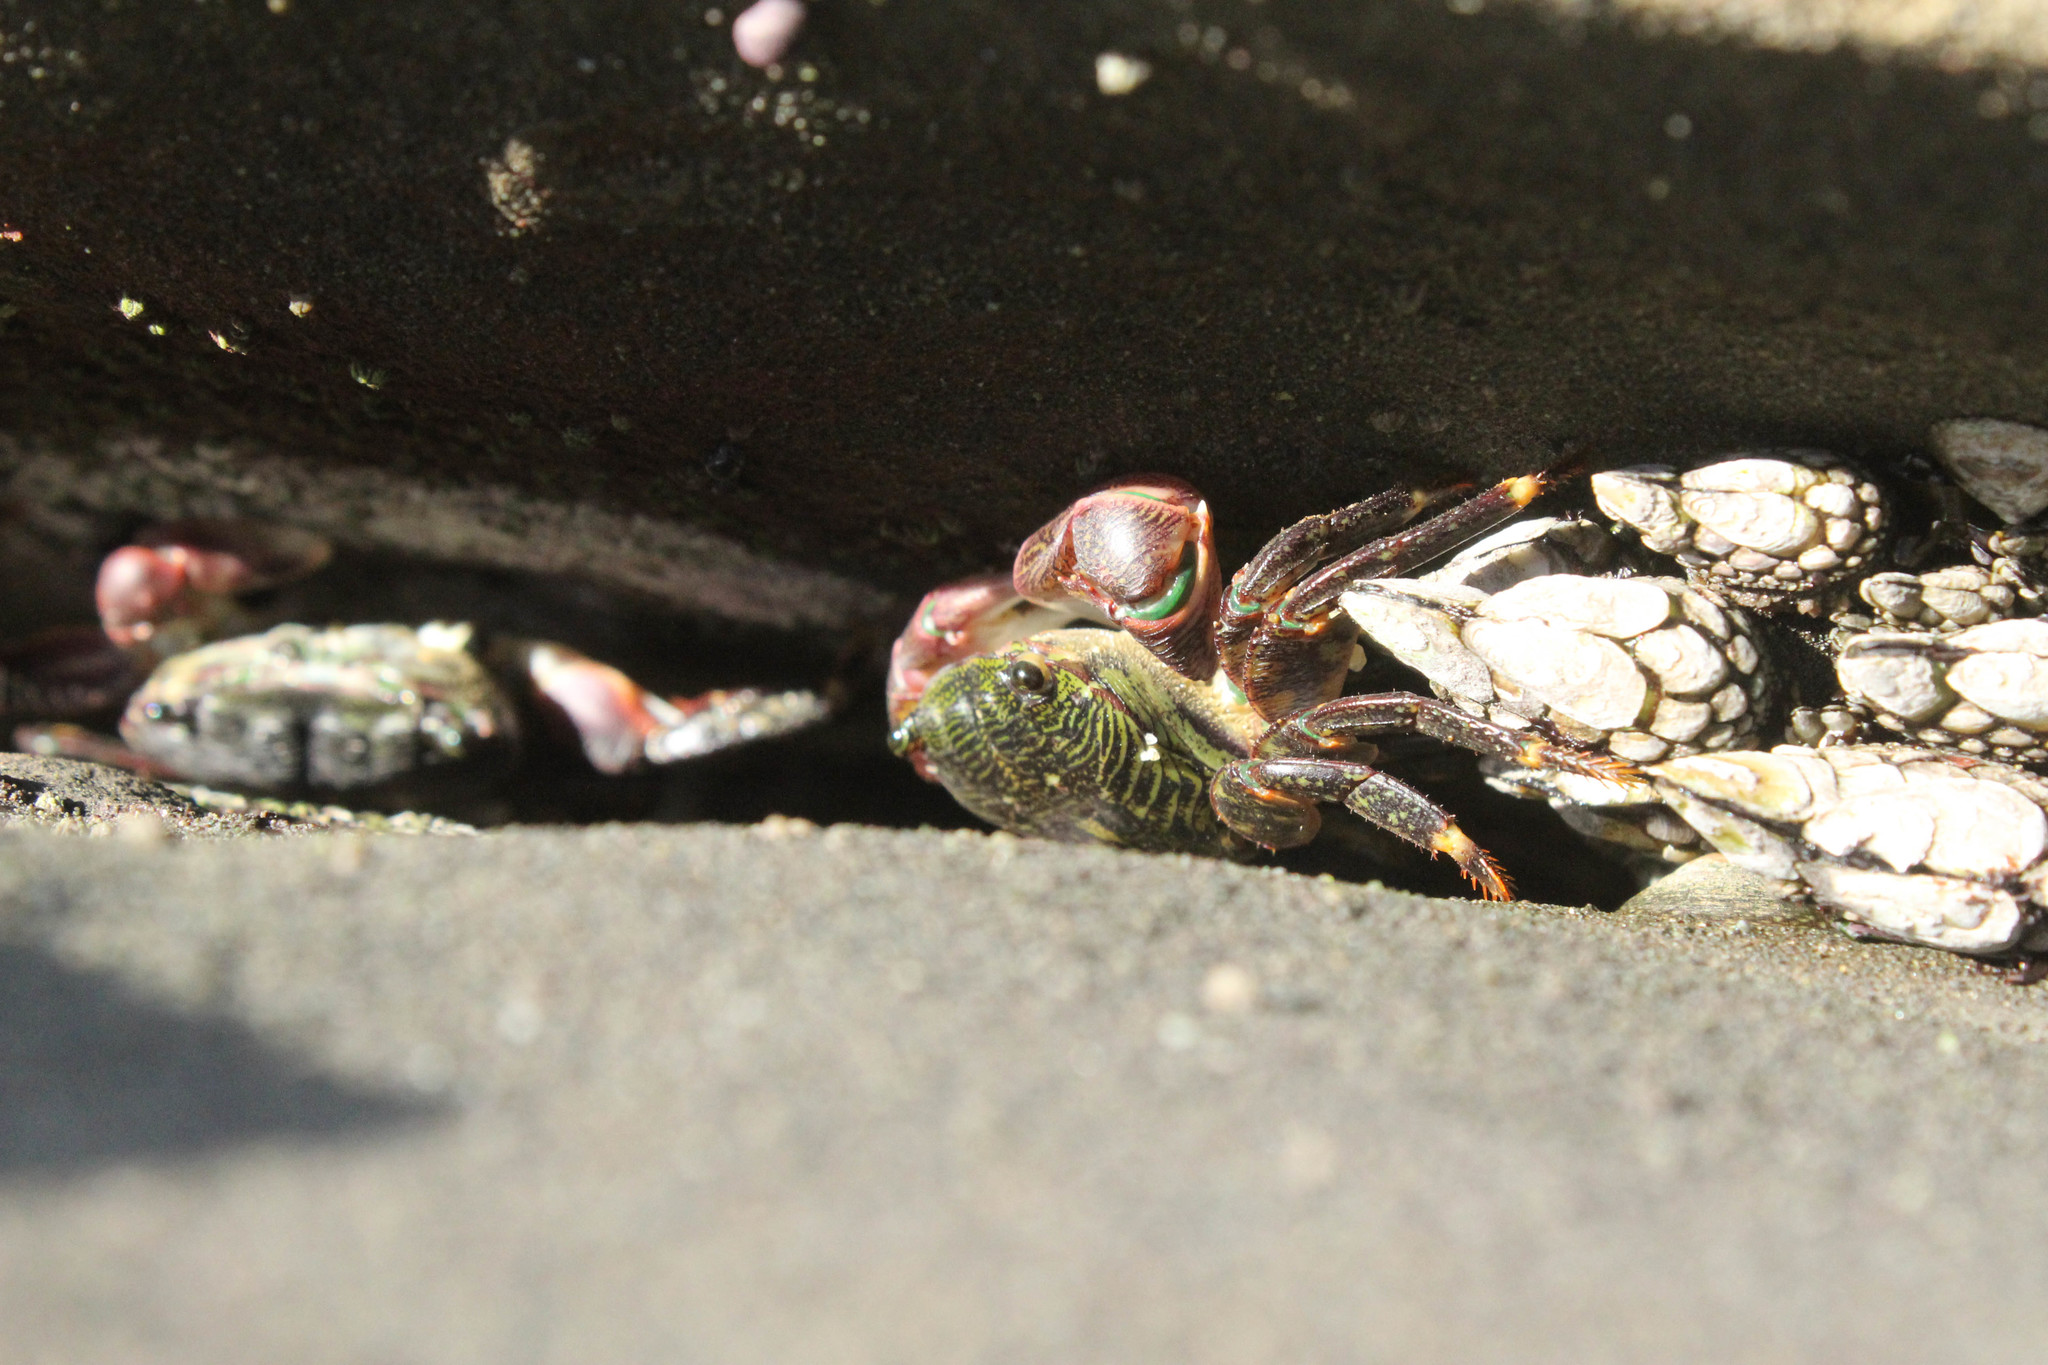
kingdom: Animalia
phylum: Arthropoda
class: Malacostraca
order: Decapoda
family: Grapsidae
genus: Pachygrapsus
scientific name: Pachygrapsus crassipes
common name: Striped shore crab
